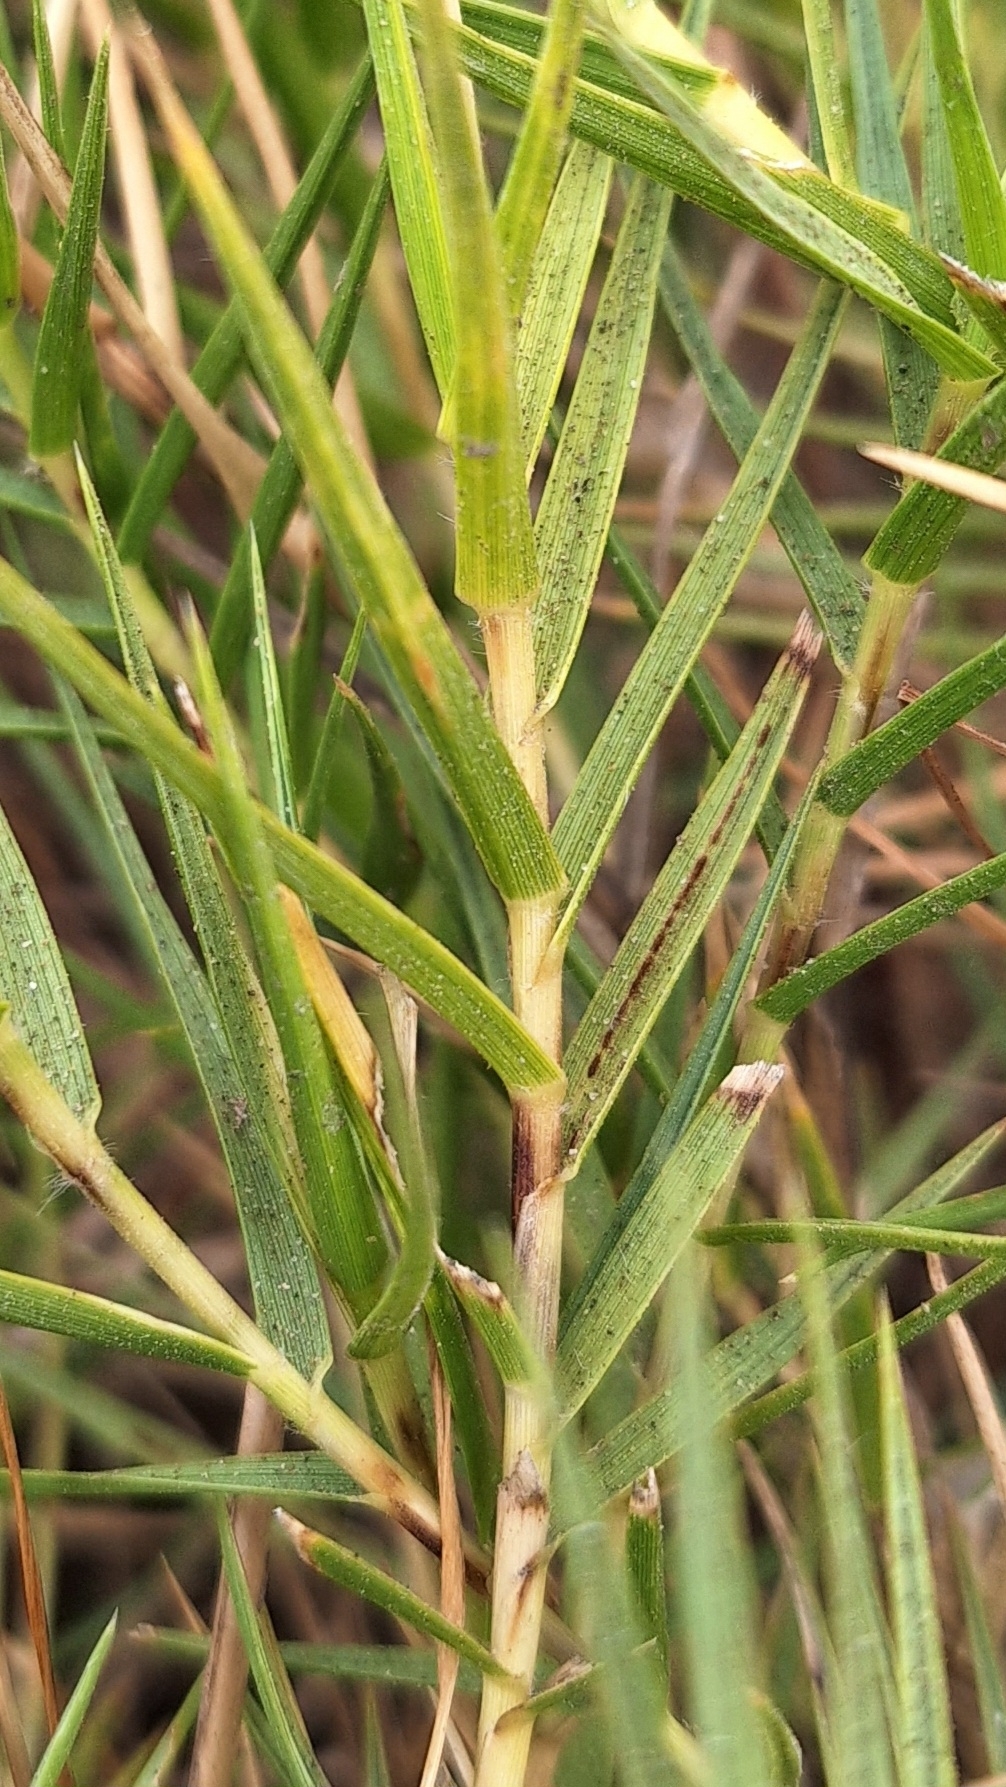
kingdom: Plantae
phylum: Tracheophyta
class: Liliopsida
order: Poales
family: Poaceae
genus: Distichlis
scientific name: Distichlis distichophylla
